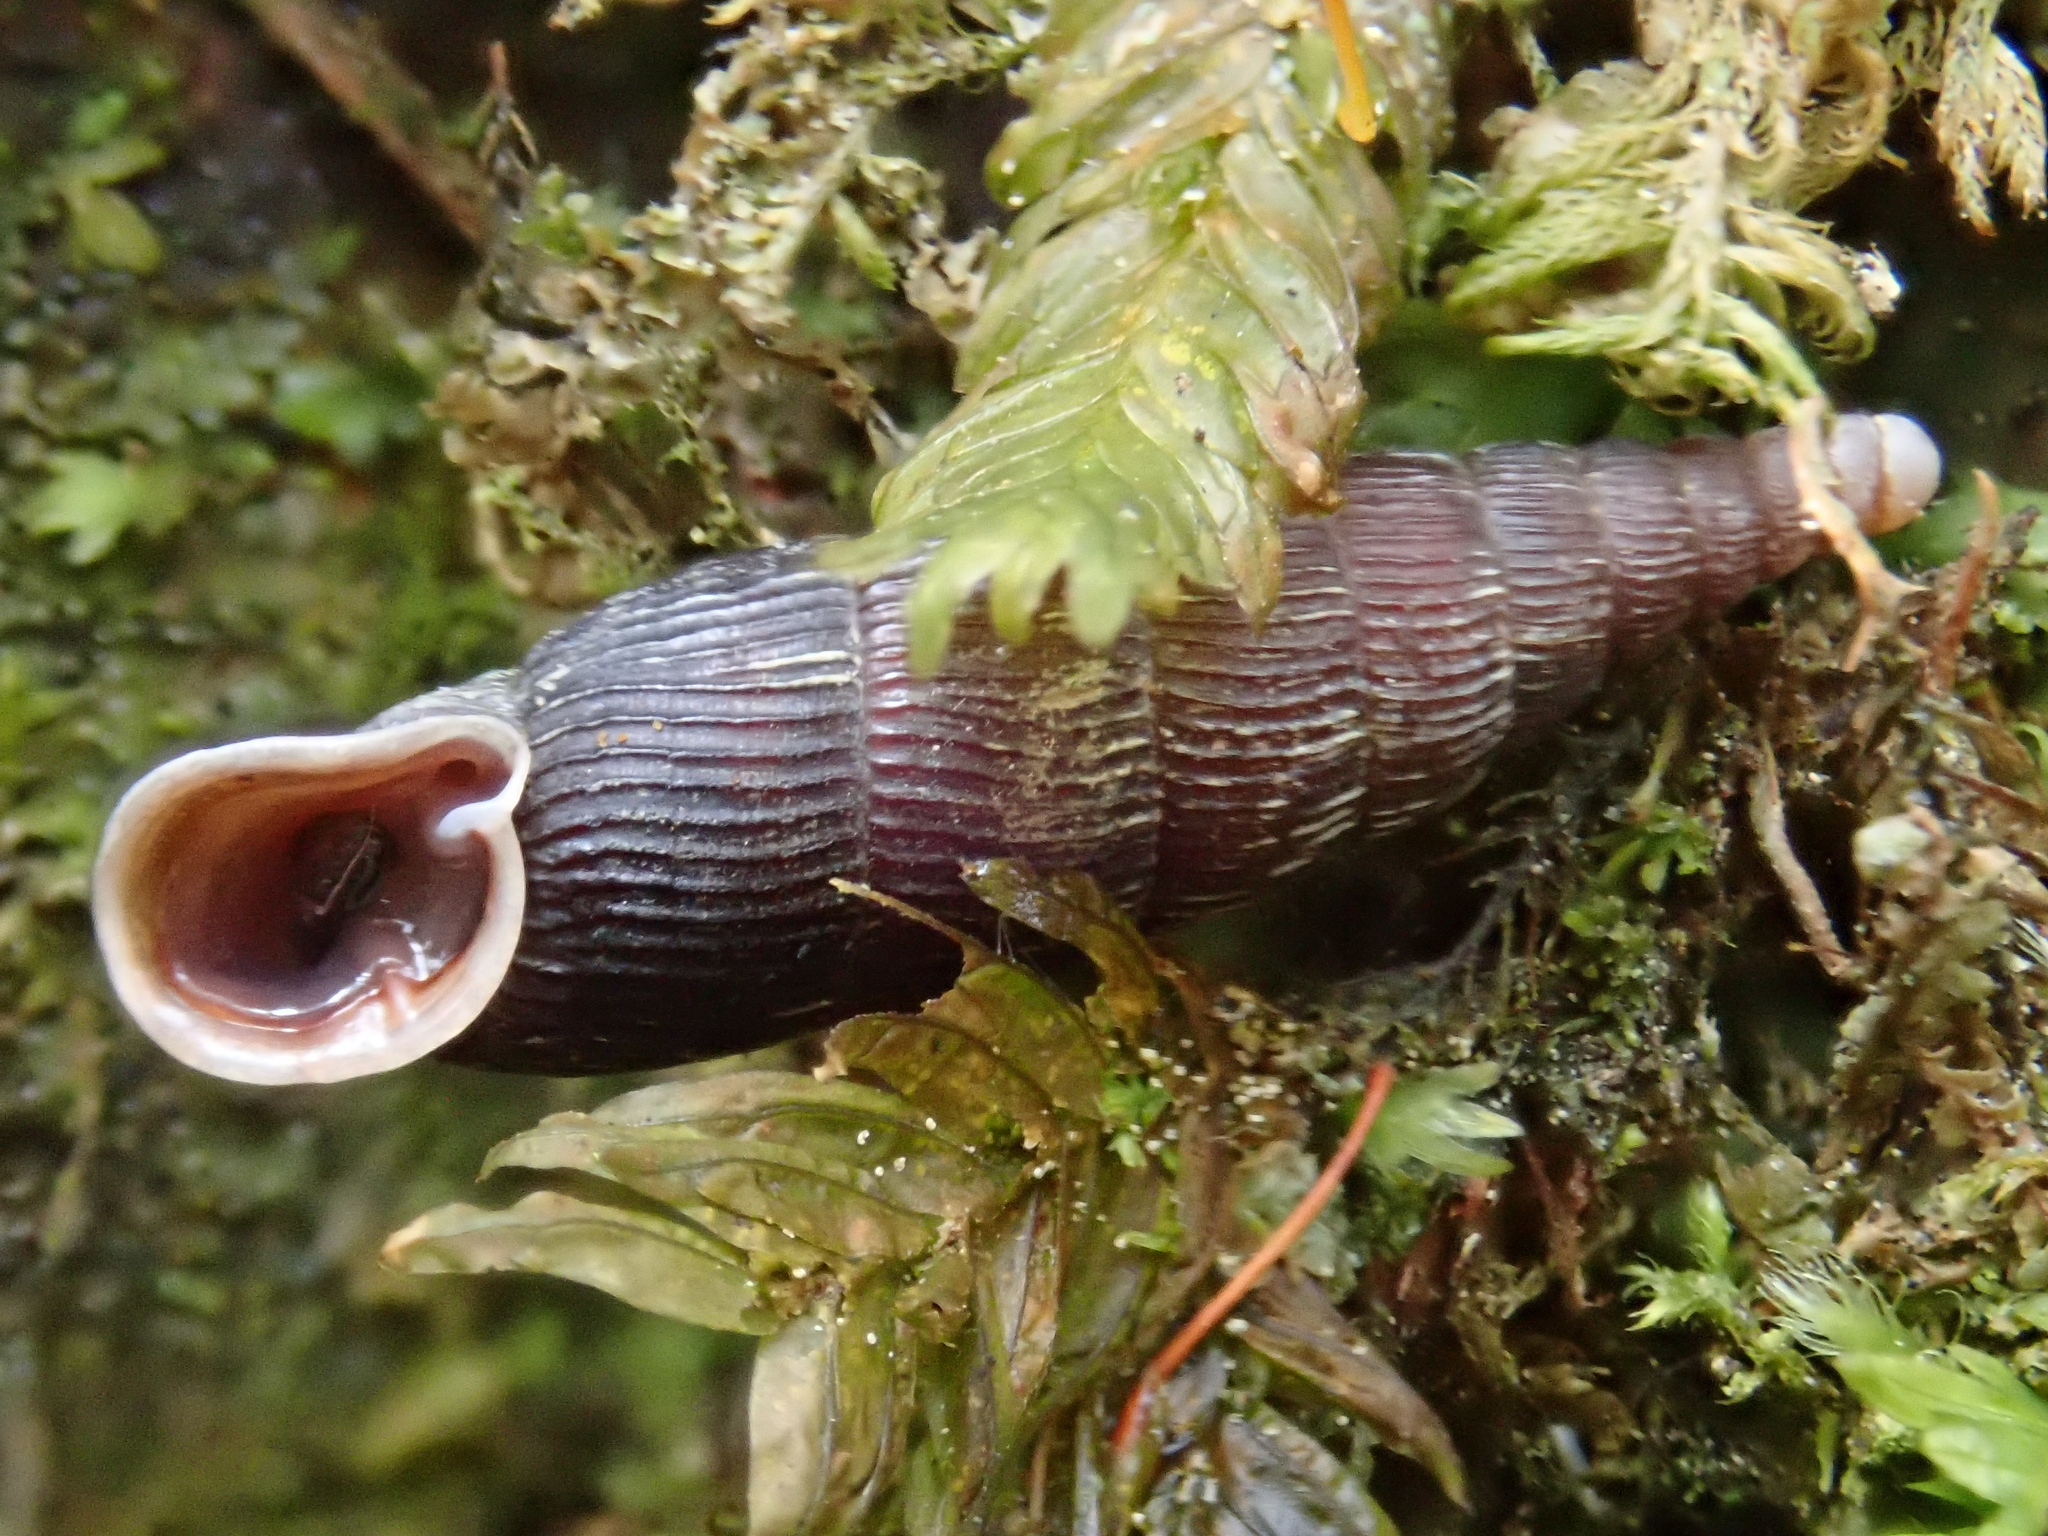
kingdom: Animalia
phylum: Mollusca
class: Gastropoda
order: Stylommatophora
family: Clausiliidae
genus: Macrogastra
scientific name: Macrogastra ventricosa
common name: Ventricose door snail
